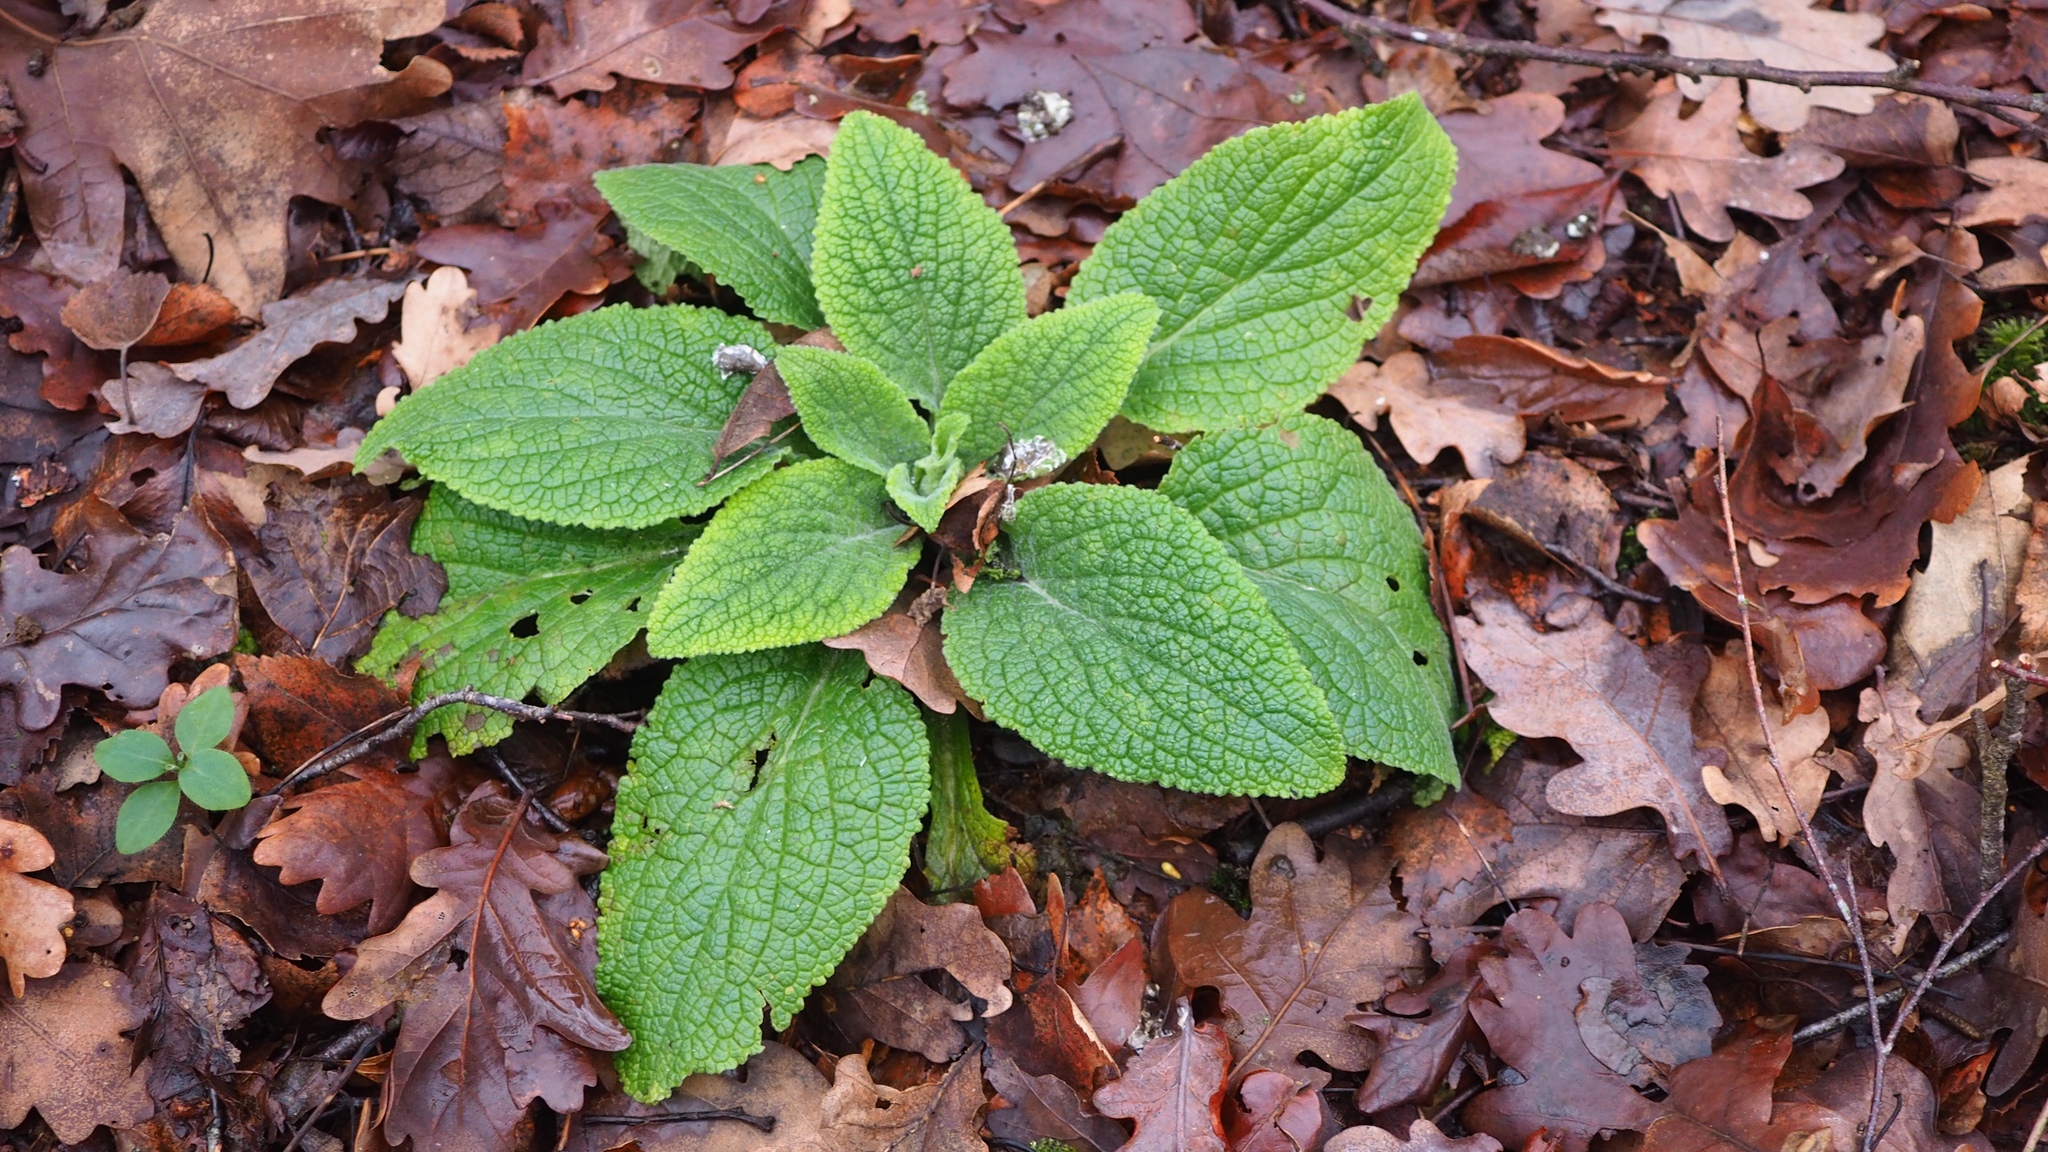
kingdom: Plantae
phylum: Tracheophyta
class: Magnoliopsida
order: Lamiales
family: Plantaginaceae
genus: Digitalis
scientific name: Digitalis purpurea
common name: Foxglove
